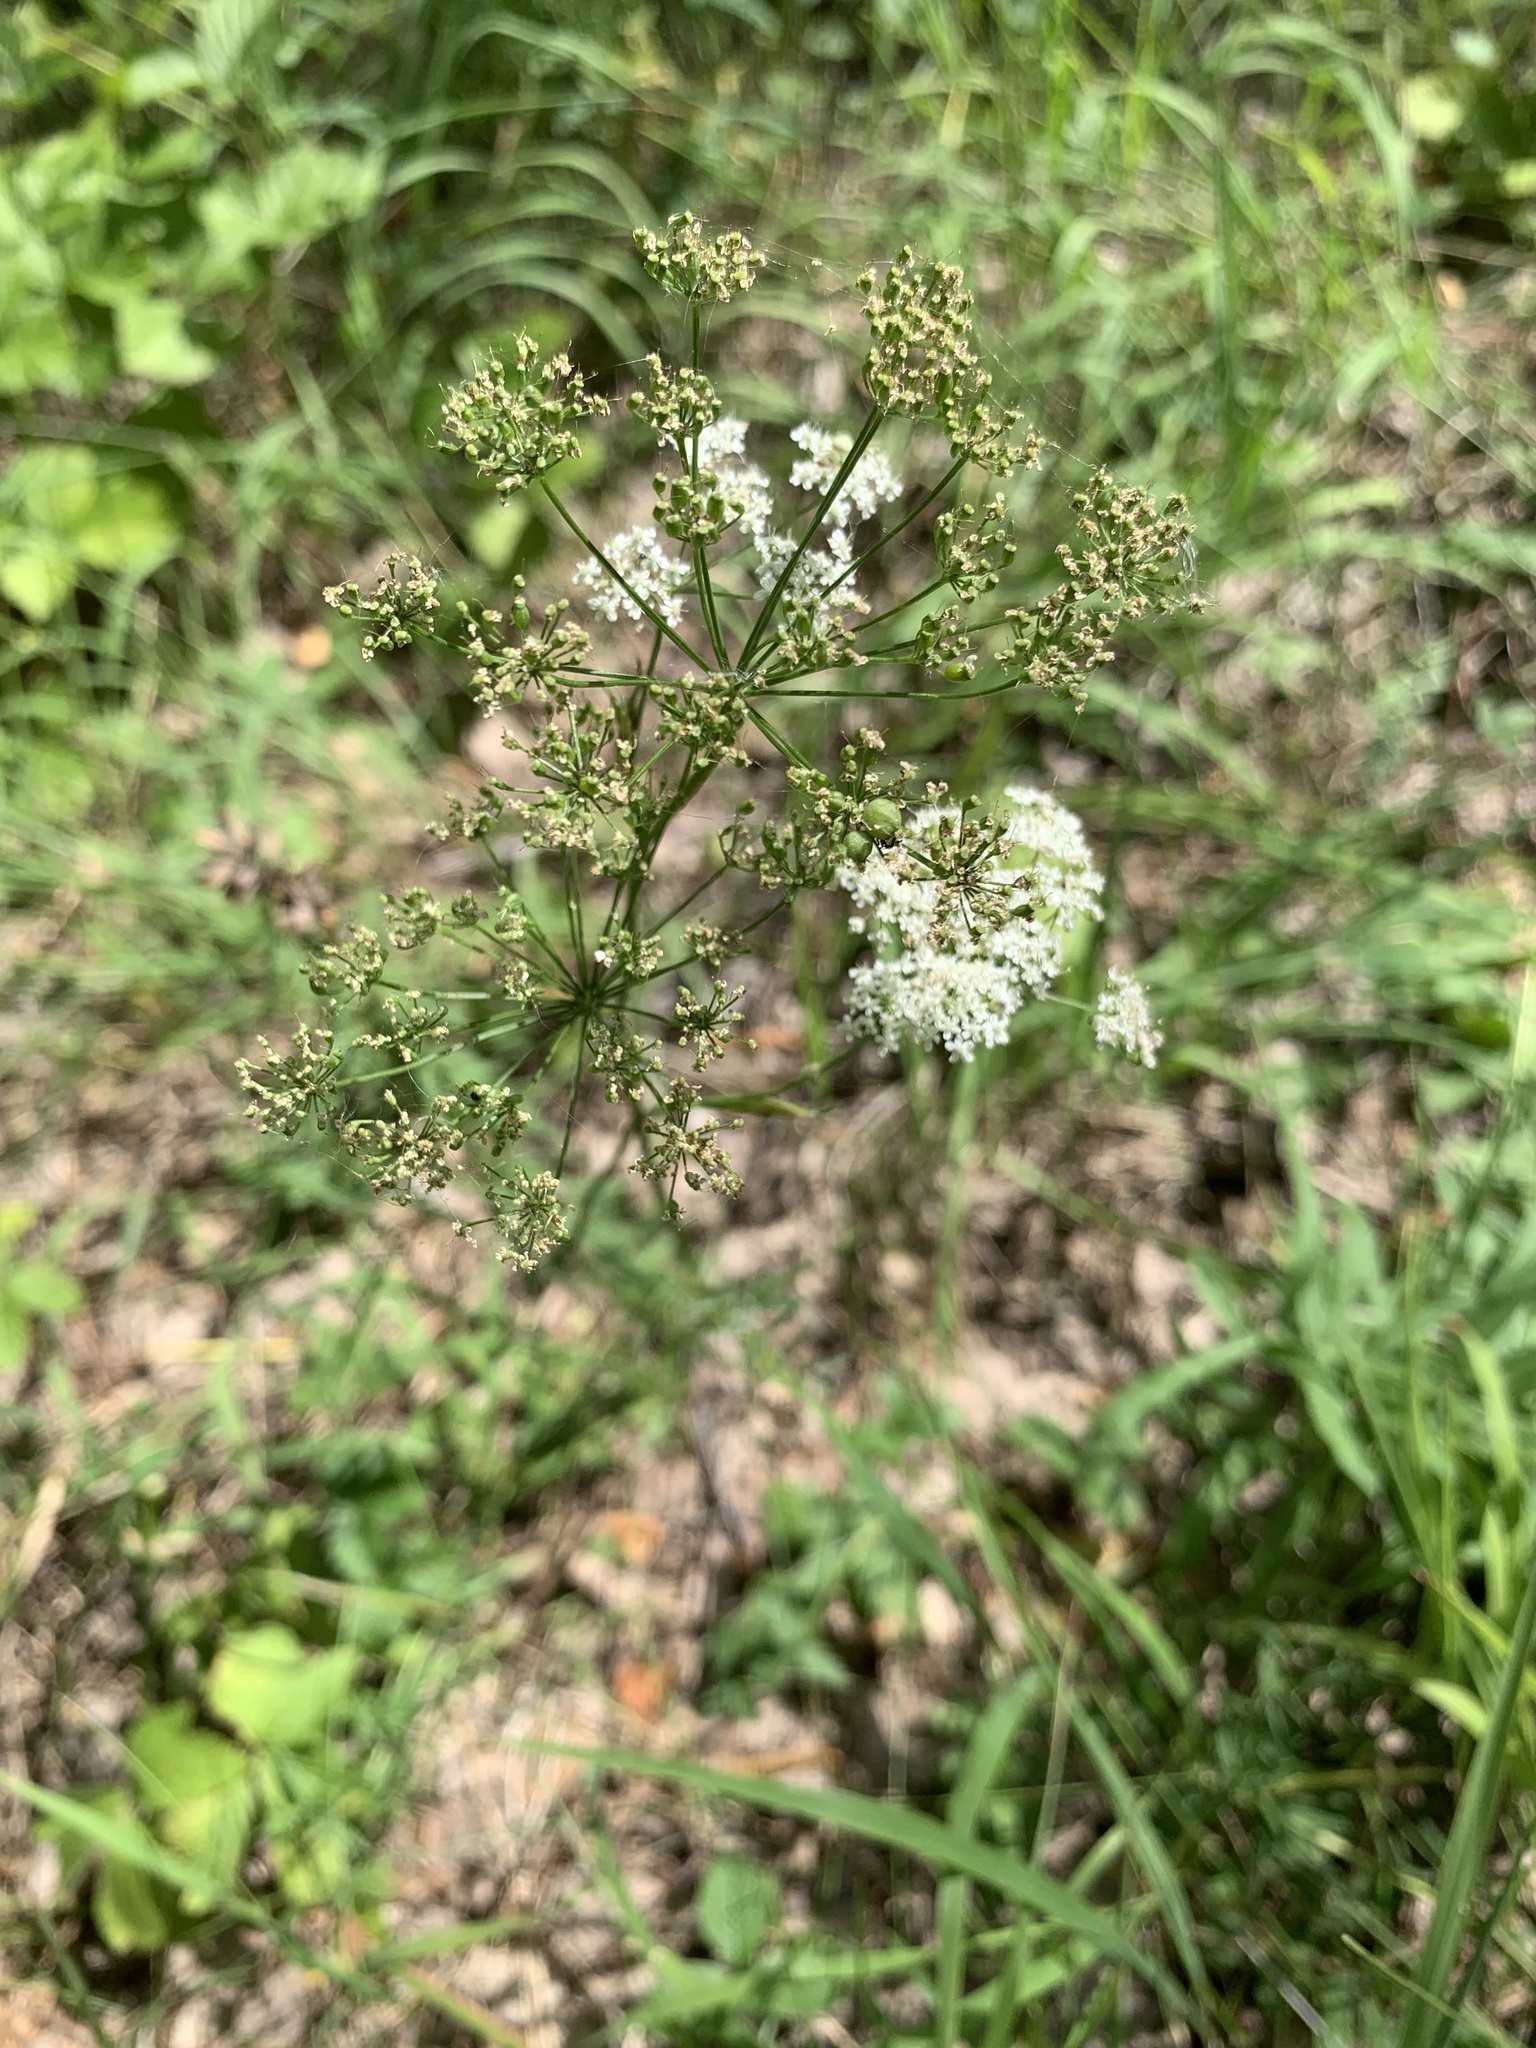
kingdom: Plantae
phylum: Tracheophyta
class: Magnoliopsida
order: Apiales
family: Apiaceae
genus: Pimpinella
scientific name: Pimpinella saxifraga
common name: Burnet-saxifrage
